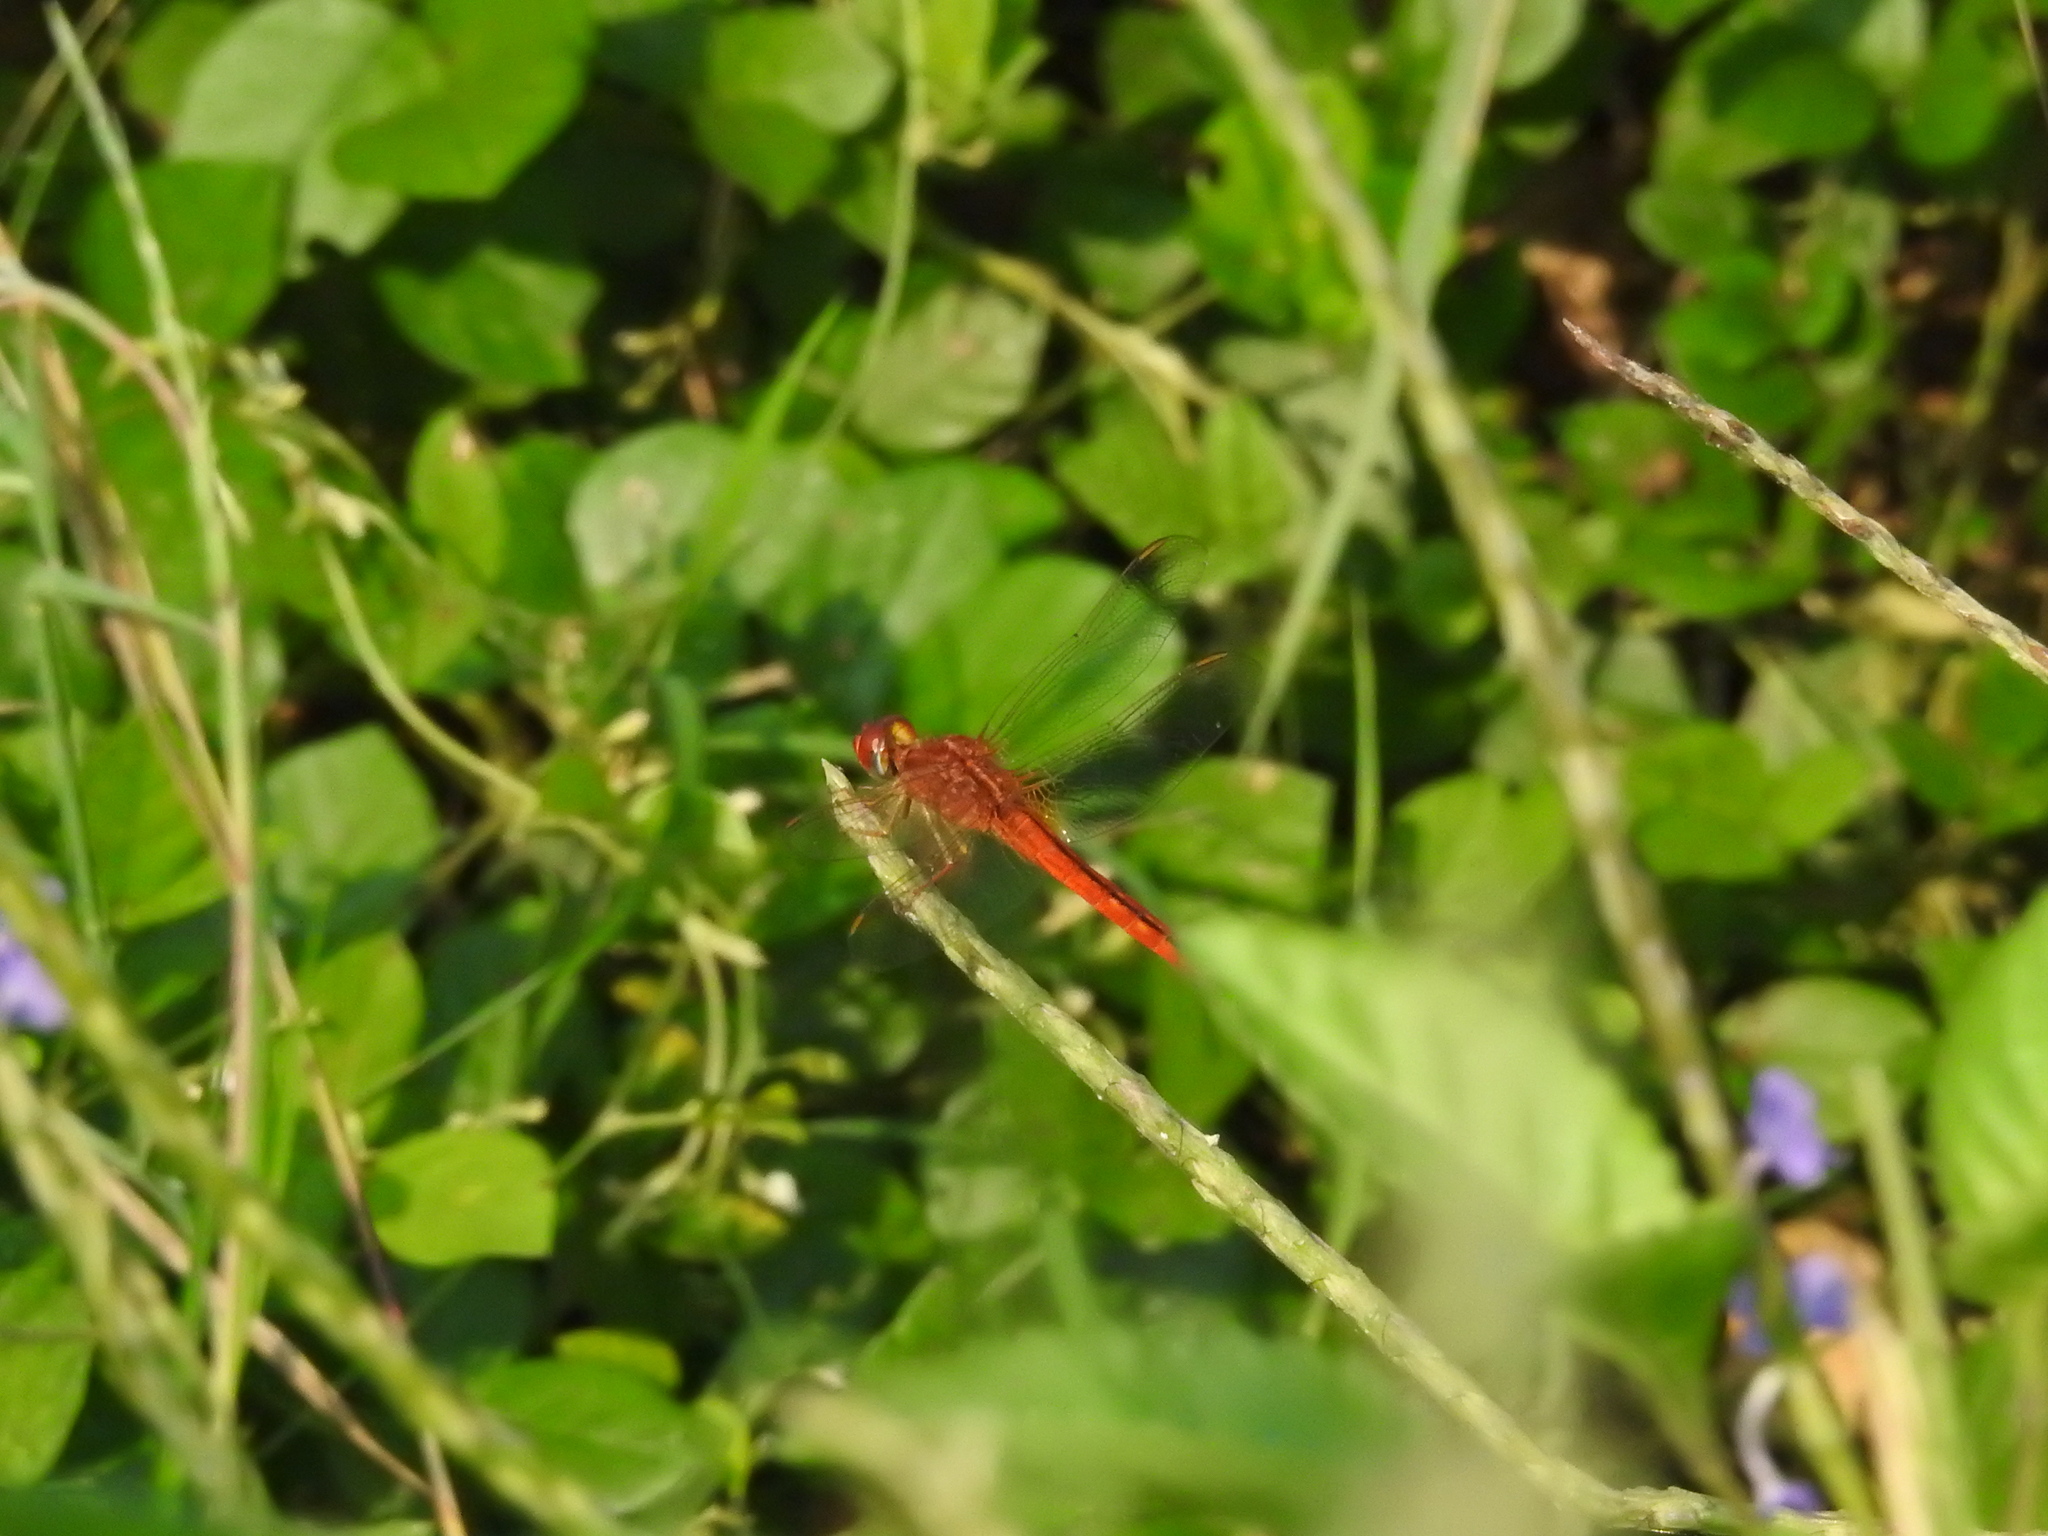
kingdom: Animalia
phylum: Arthropoda
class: Insecta
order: Odonata
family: Libellulidae
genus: Crocothemis
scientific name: Crocothemis servilia
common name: Scarlet skimmer
